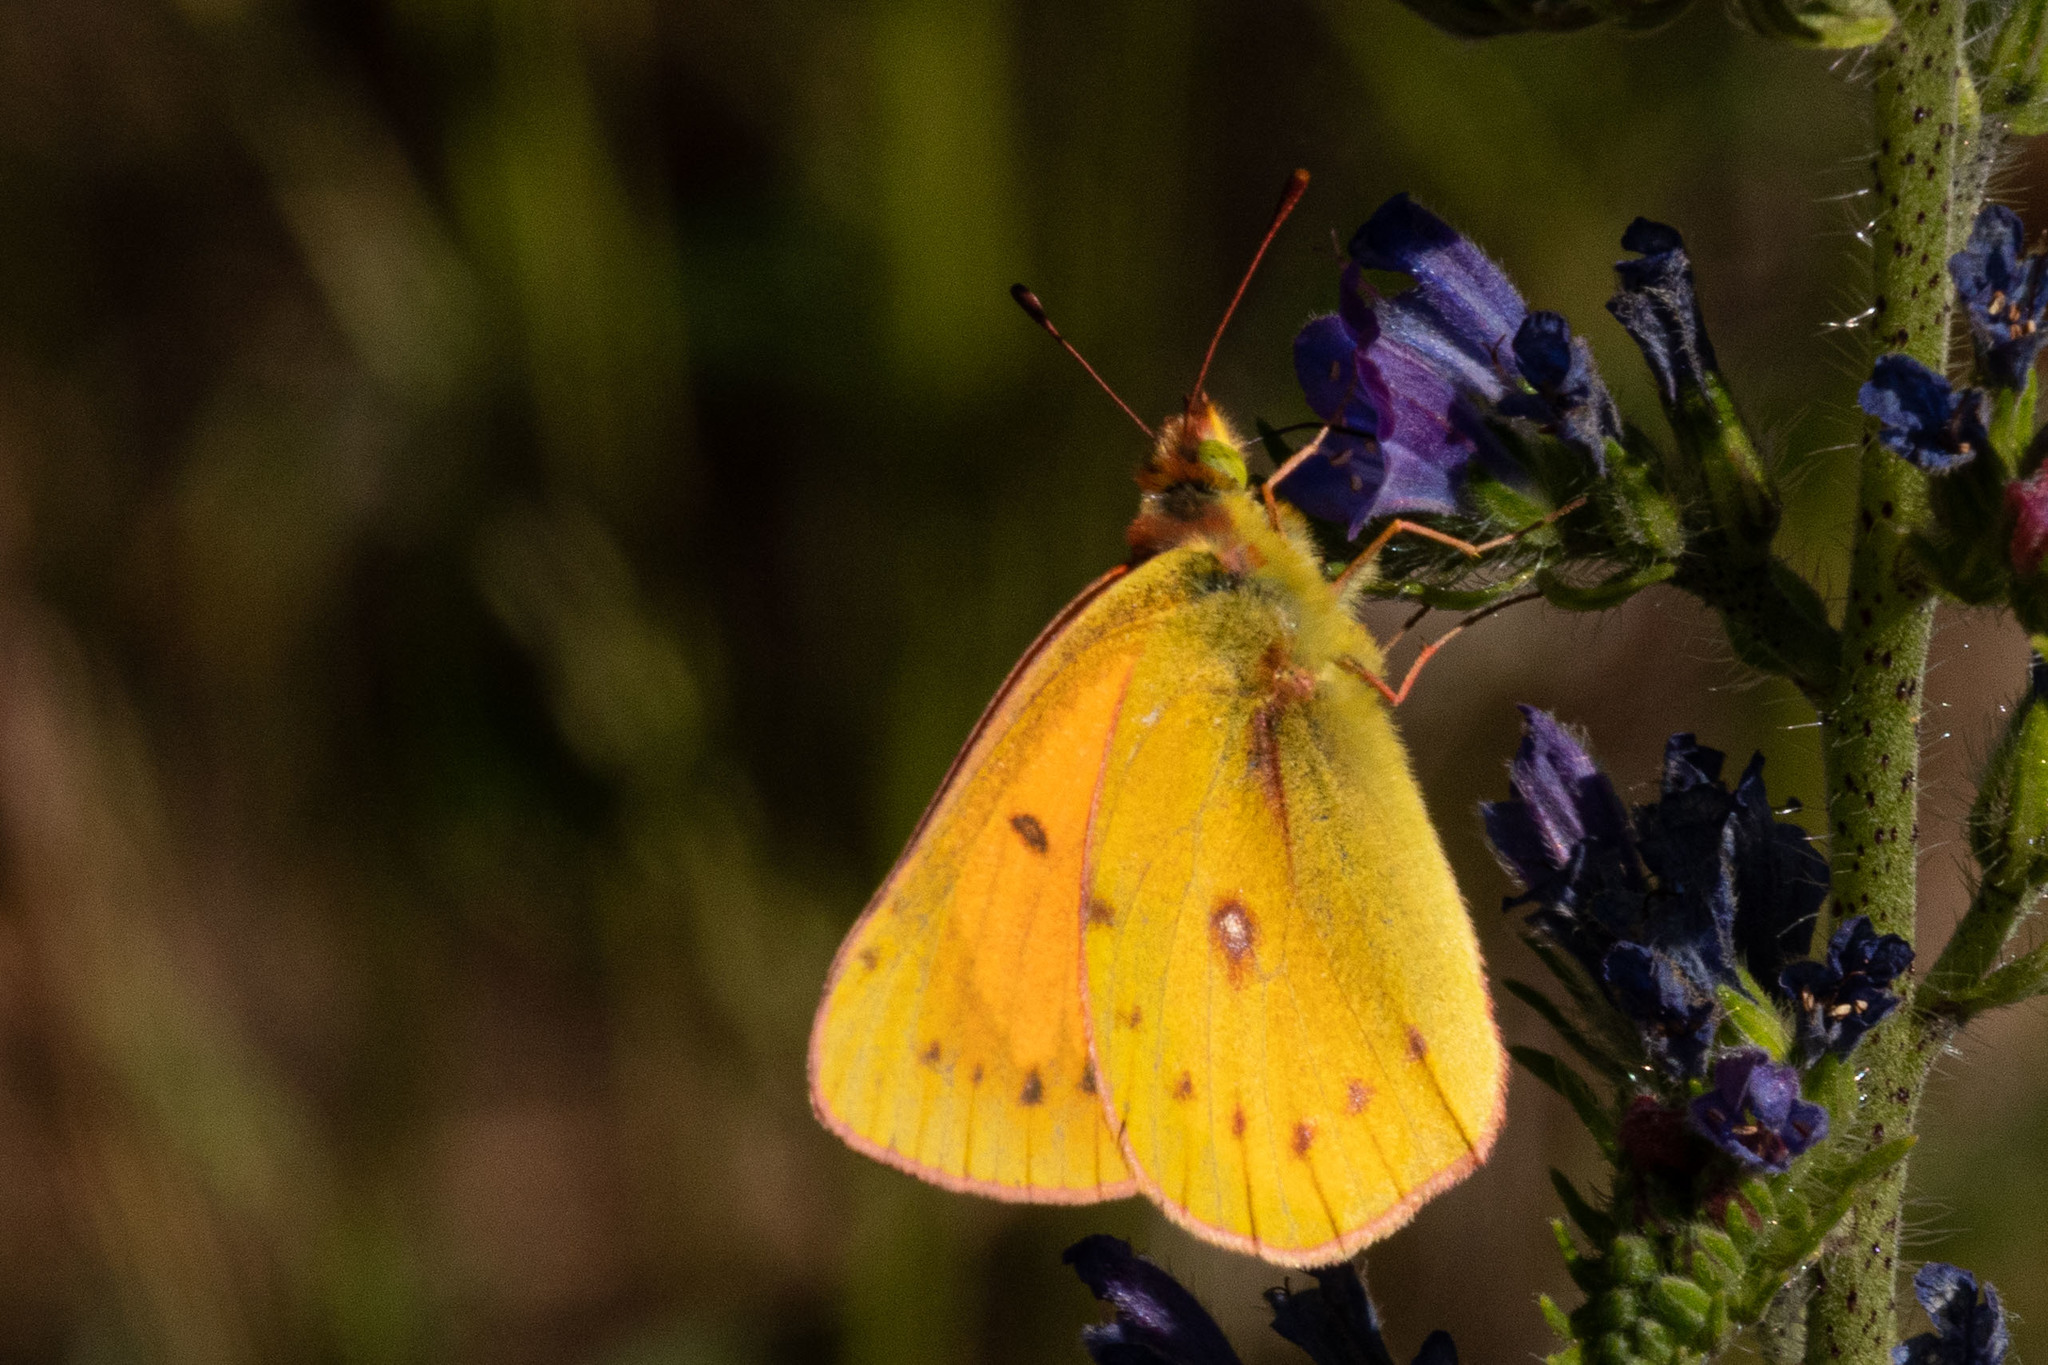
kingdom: Animalia
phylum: Arthropoda
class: Insecta
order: Lepidoptera
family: Pieridae
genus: Colias
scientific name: Colias vauthierii
